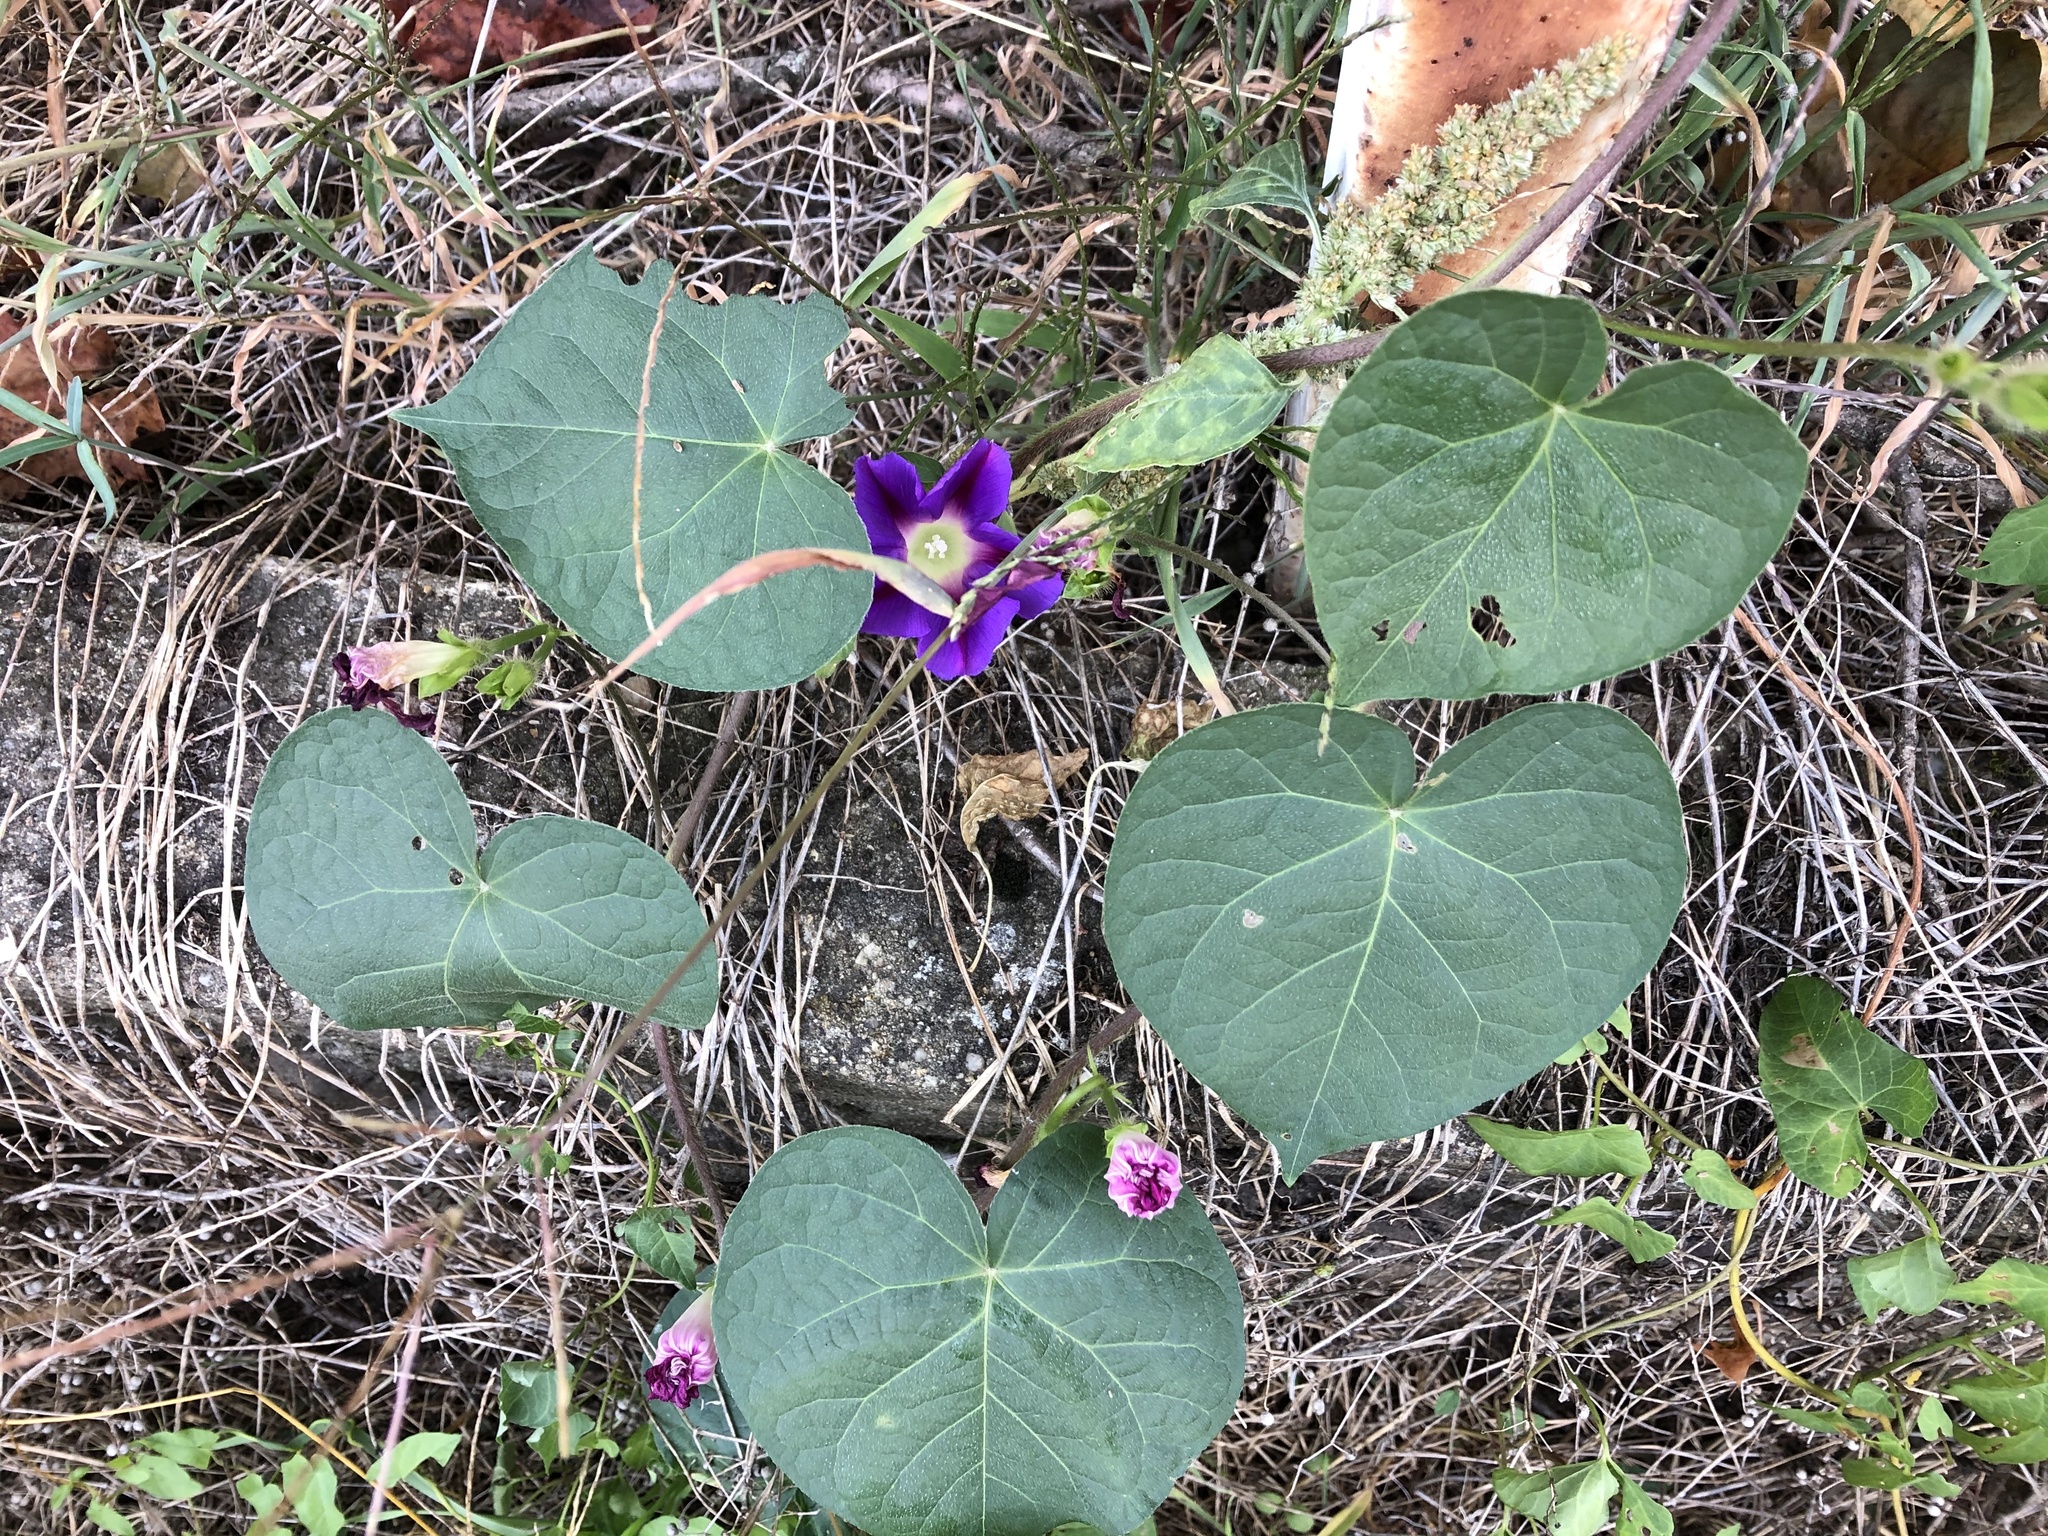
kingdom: Plantae
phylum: Tracheophyta
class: Magnoliopsida
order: Solanales
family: Convolvulaceae
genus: Ipomoea
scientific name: Ipomoea purpurea
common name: Common morning-glory
